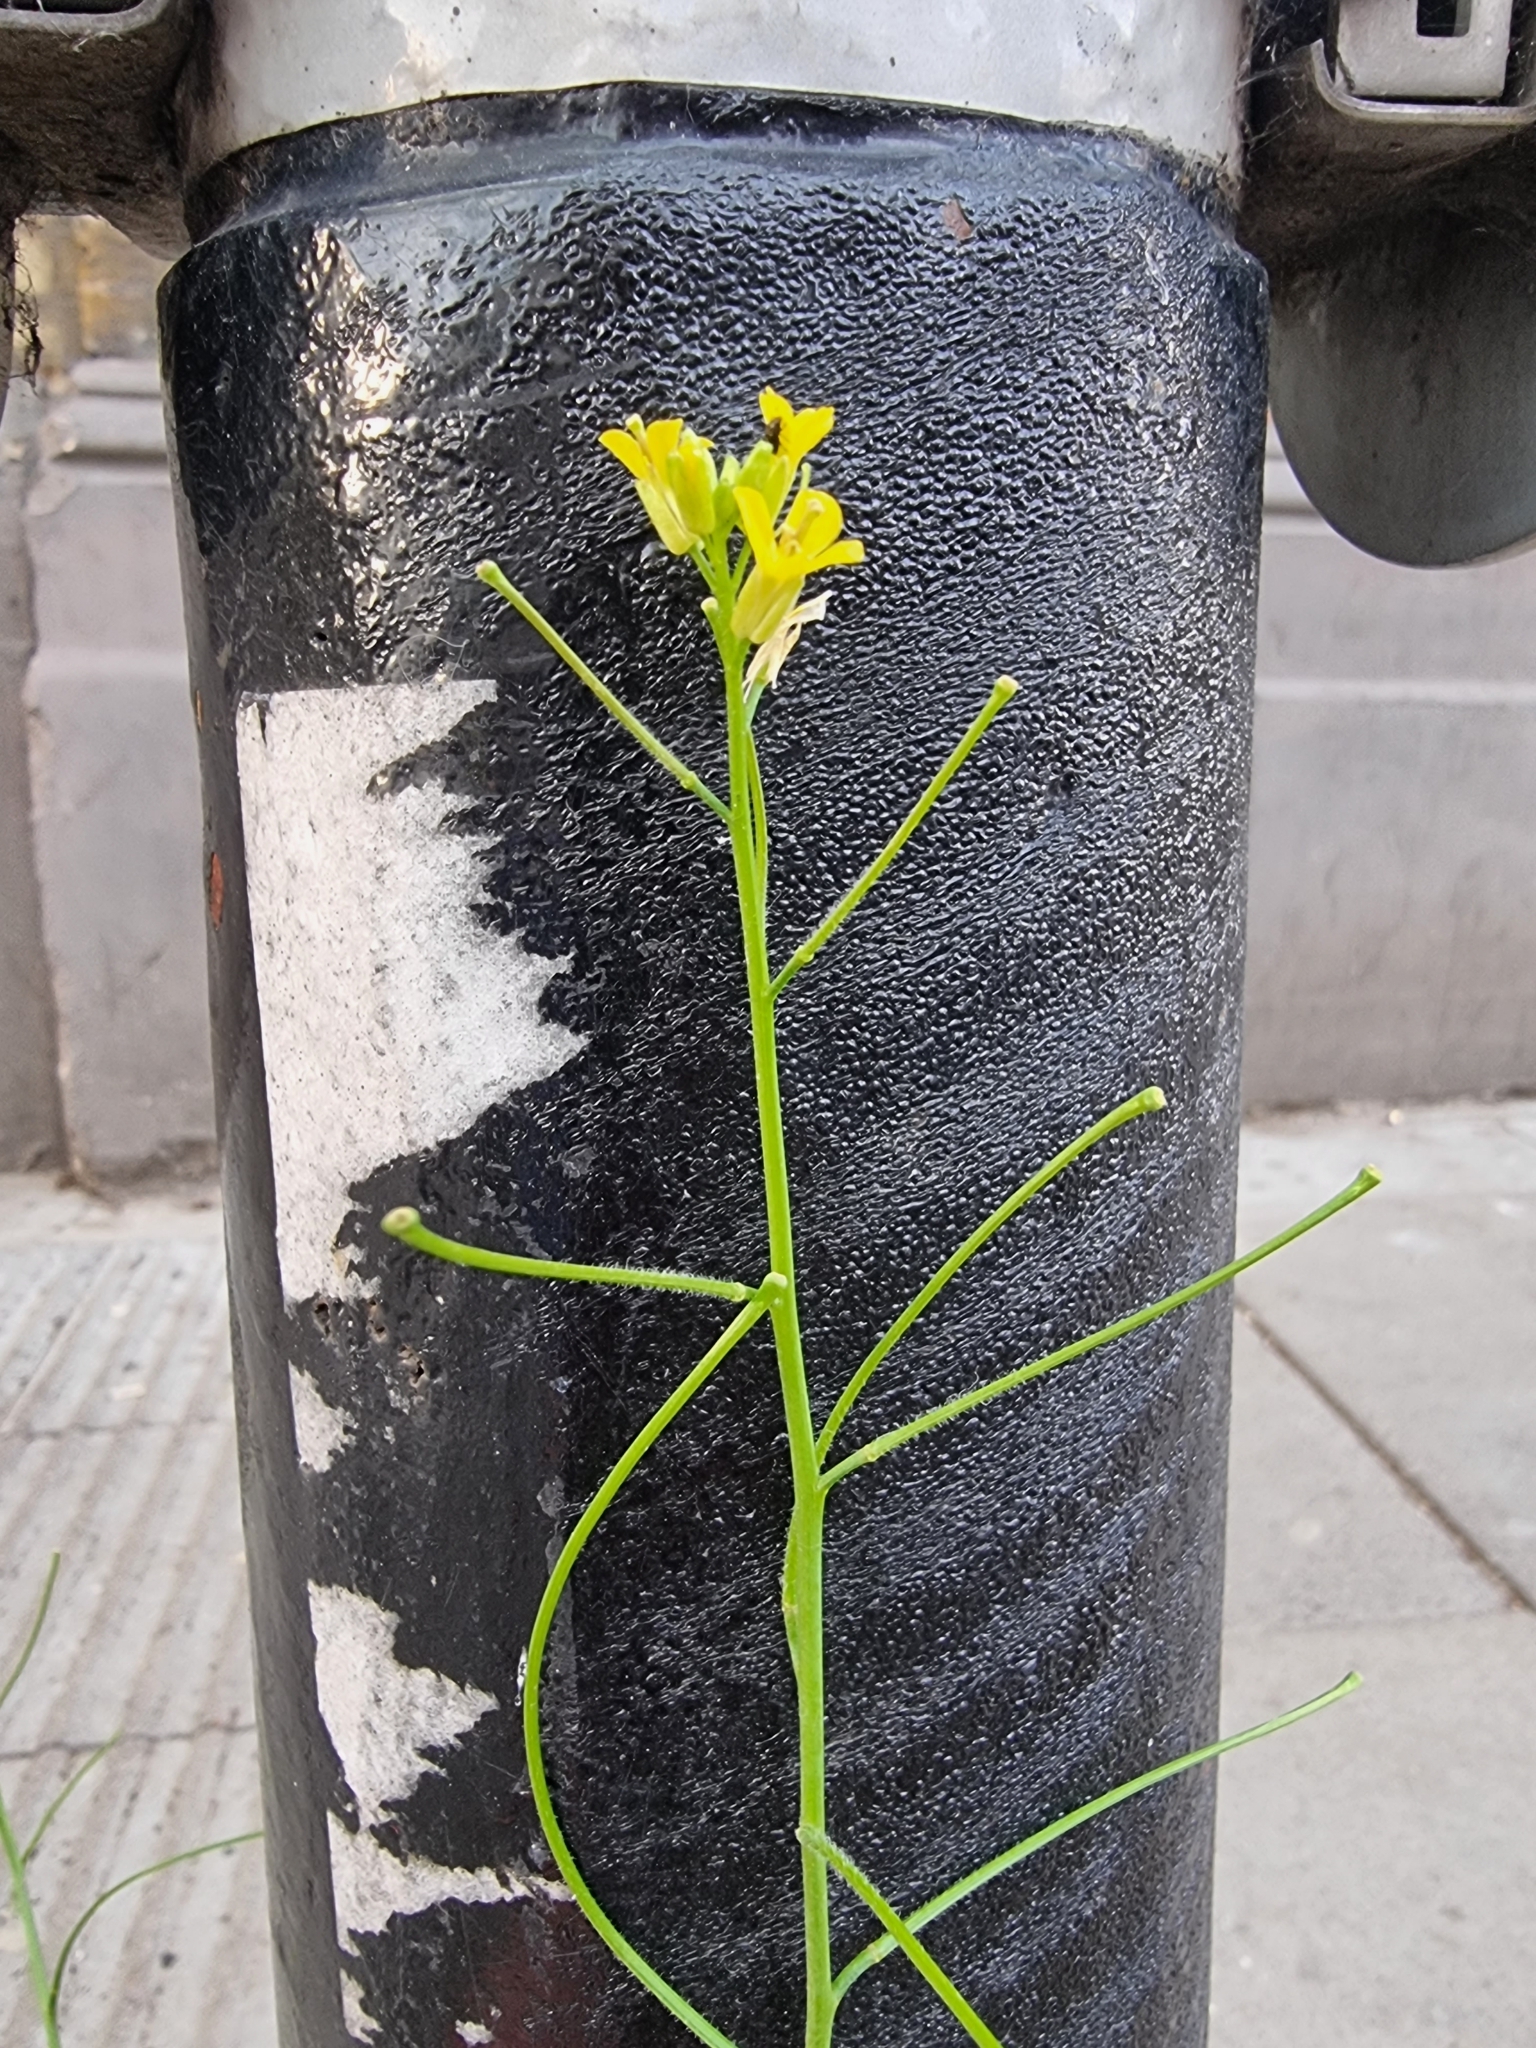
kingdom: Plantae
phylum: Tracheophyta
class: Magnoliopsida
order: Brassicales
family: Brassicaceae
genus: Sisymbrium
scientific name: Sisymbrium orientale
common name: Eastern rocket
